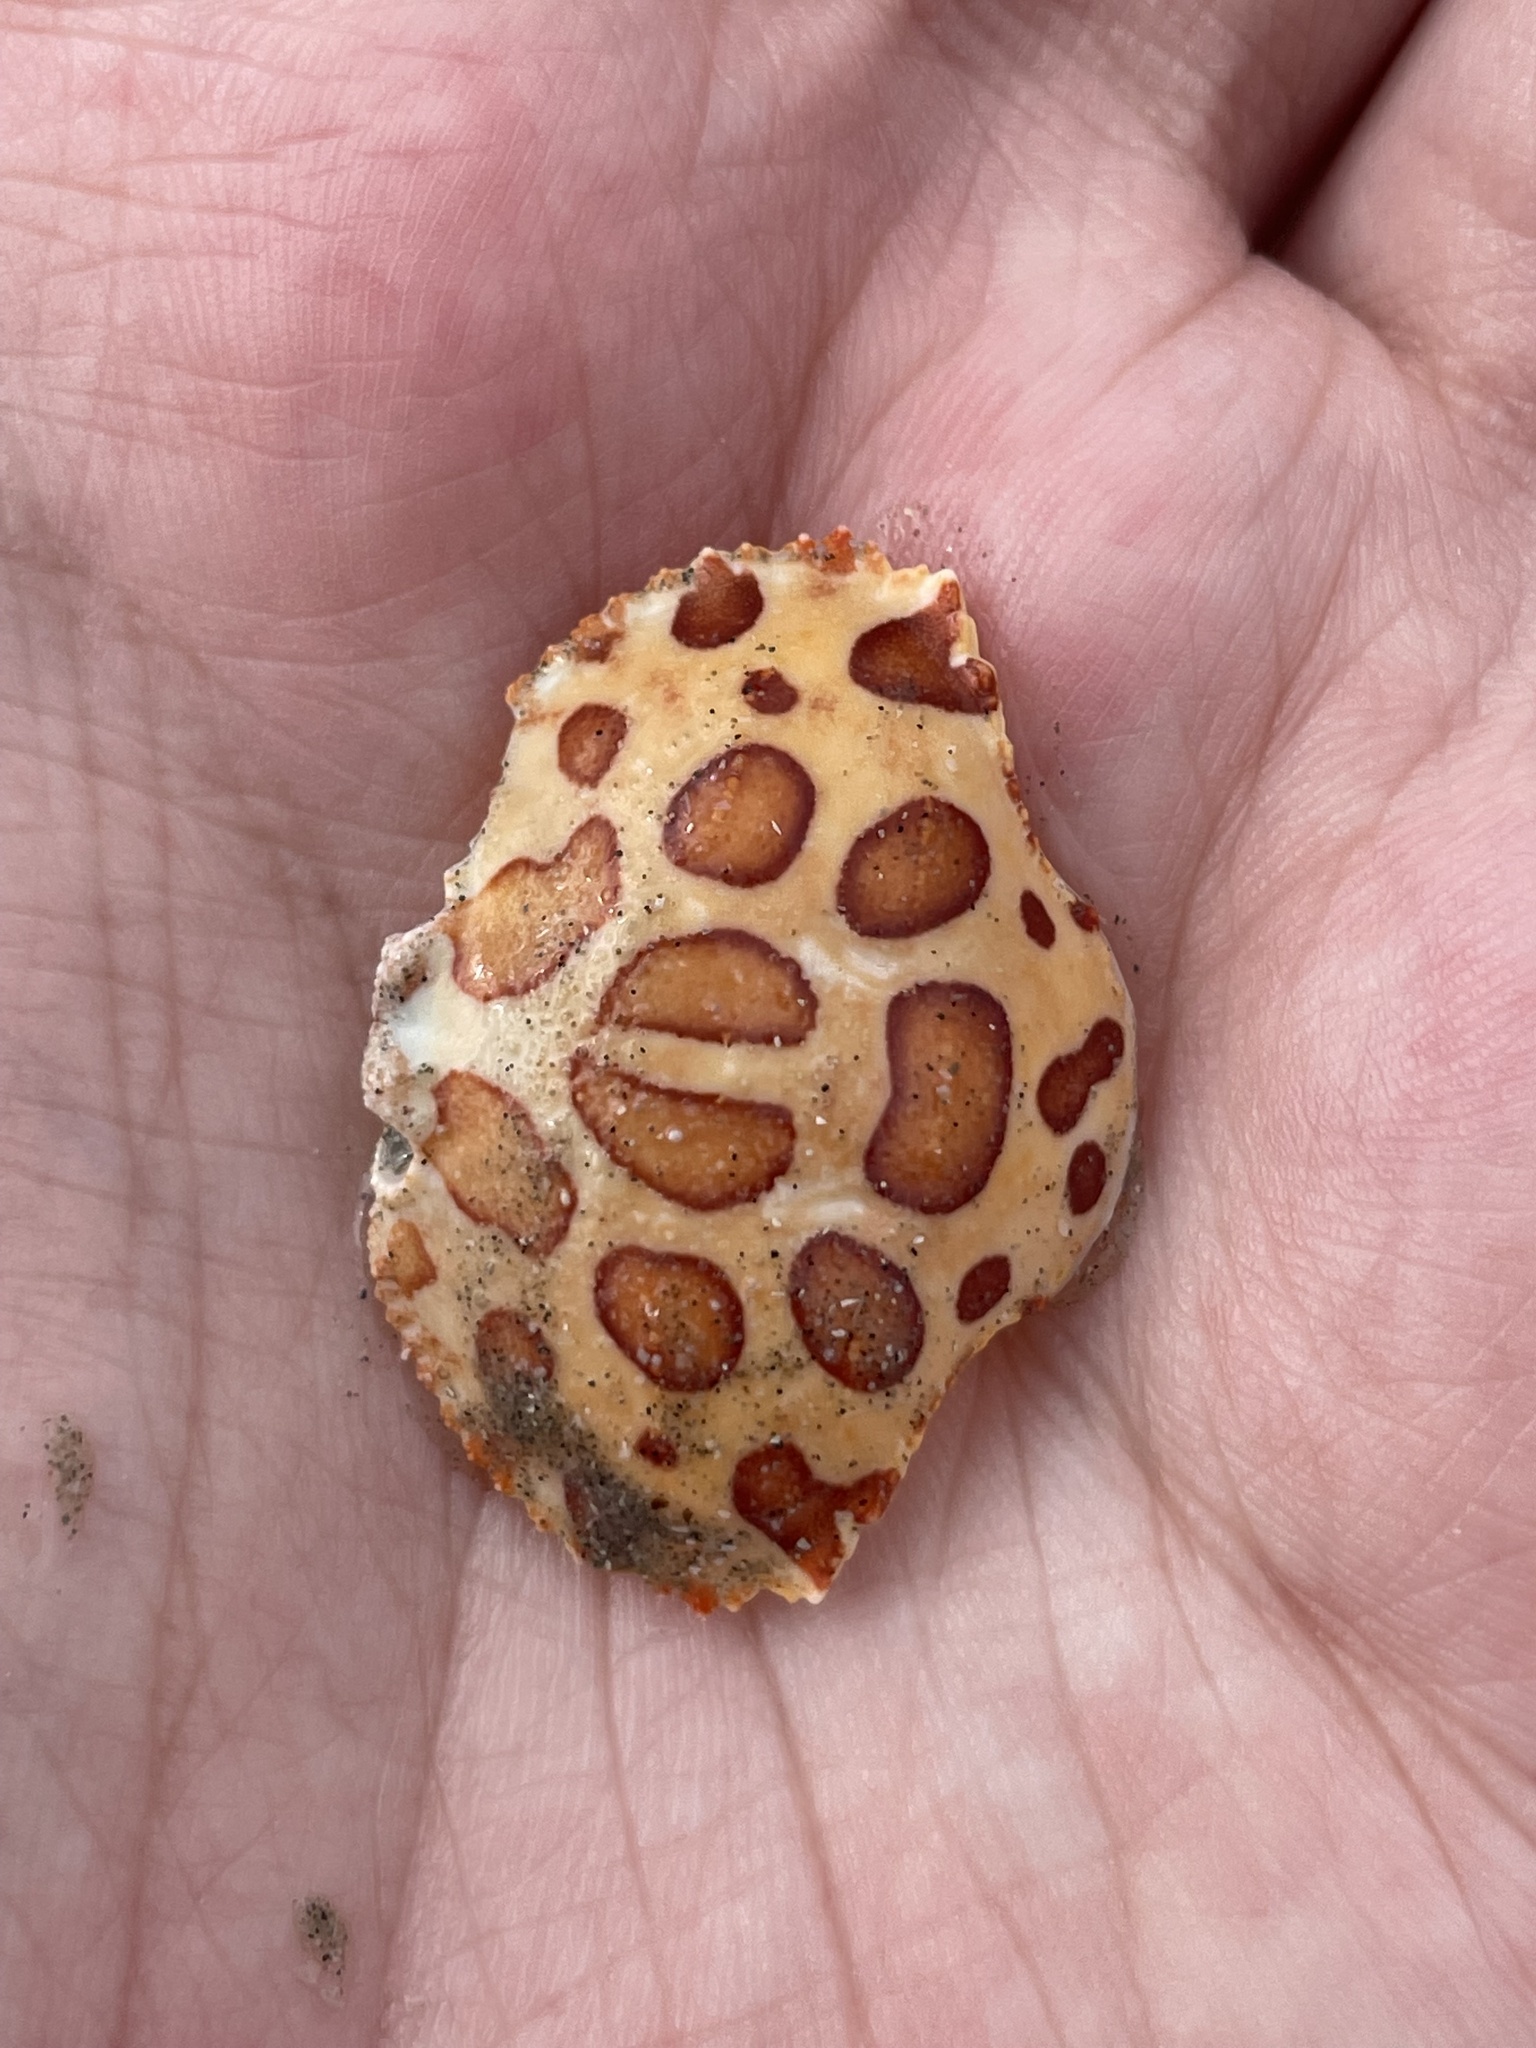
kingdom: Animalia
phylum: Arthropoda
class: Malacostraca
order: Decapoda
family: Aethridae
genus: Hepatus
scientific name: Hepatus epheliticus
